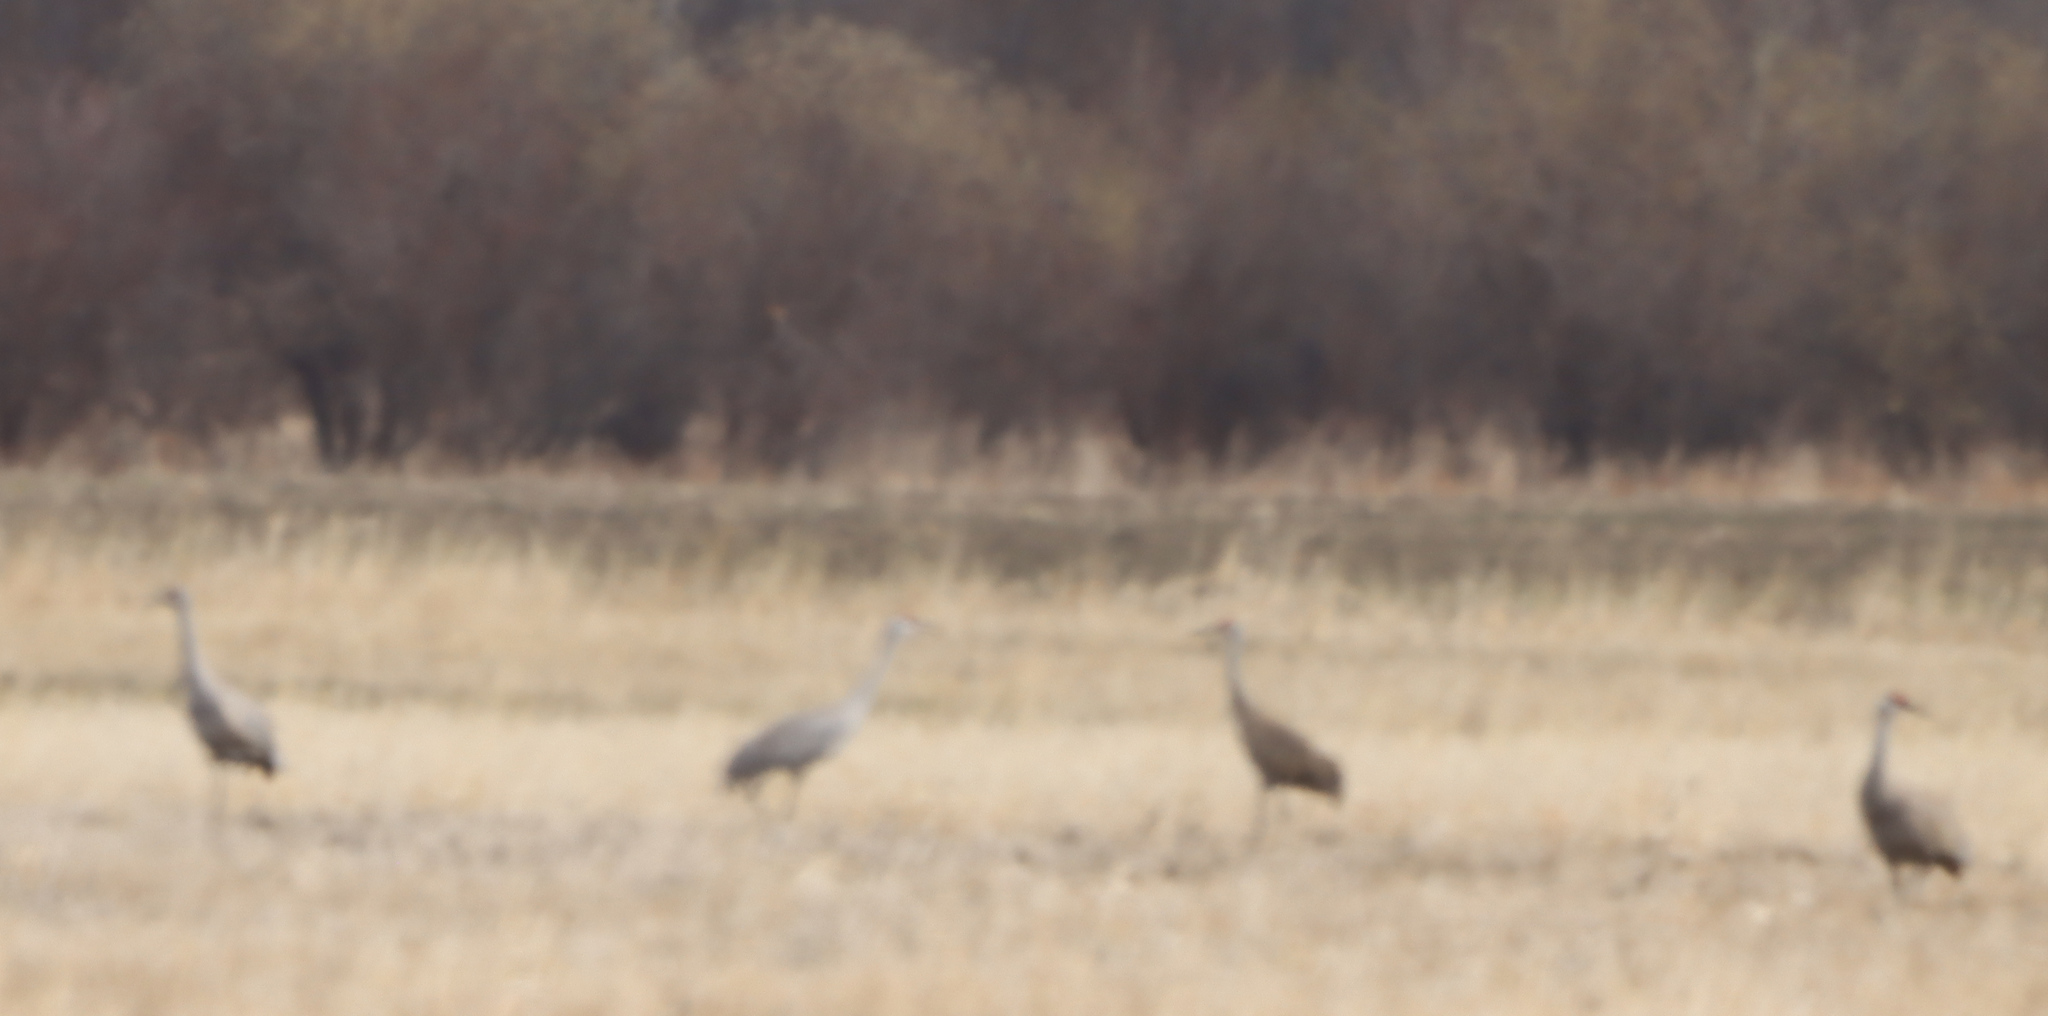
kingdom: Animalia
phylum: Chordata
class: Aves
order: Gruiformes
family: Gruidae
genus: Grus
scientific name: Grus canadensis
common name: Sandhill crane
